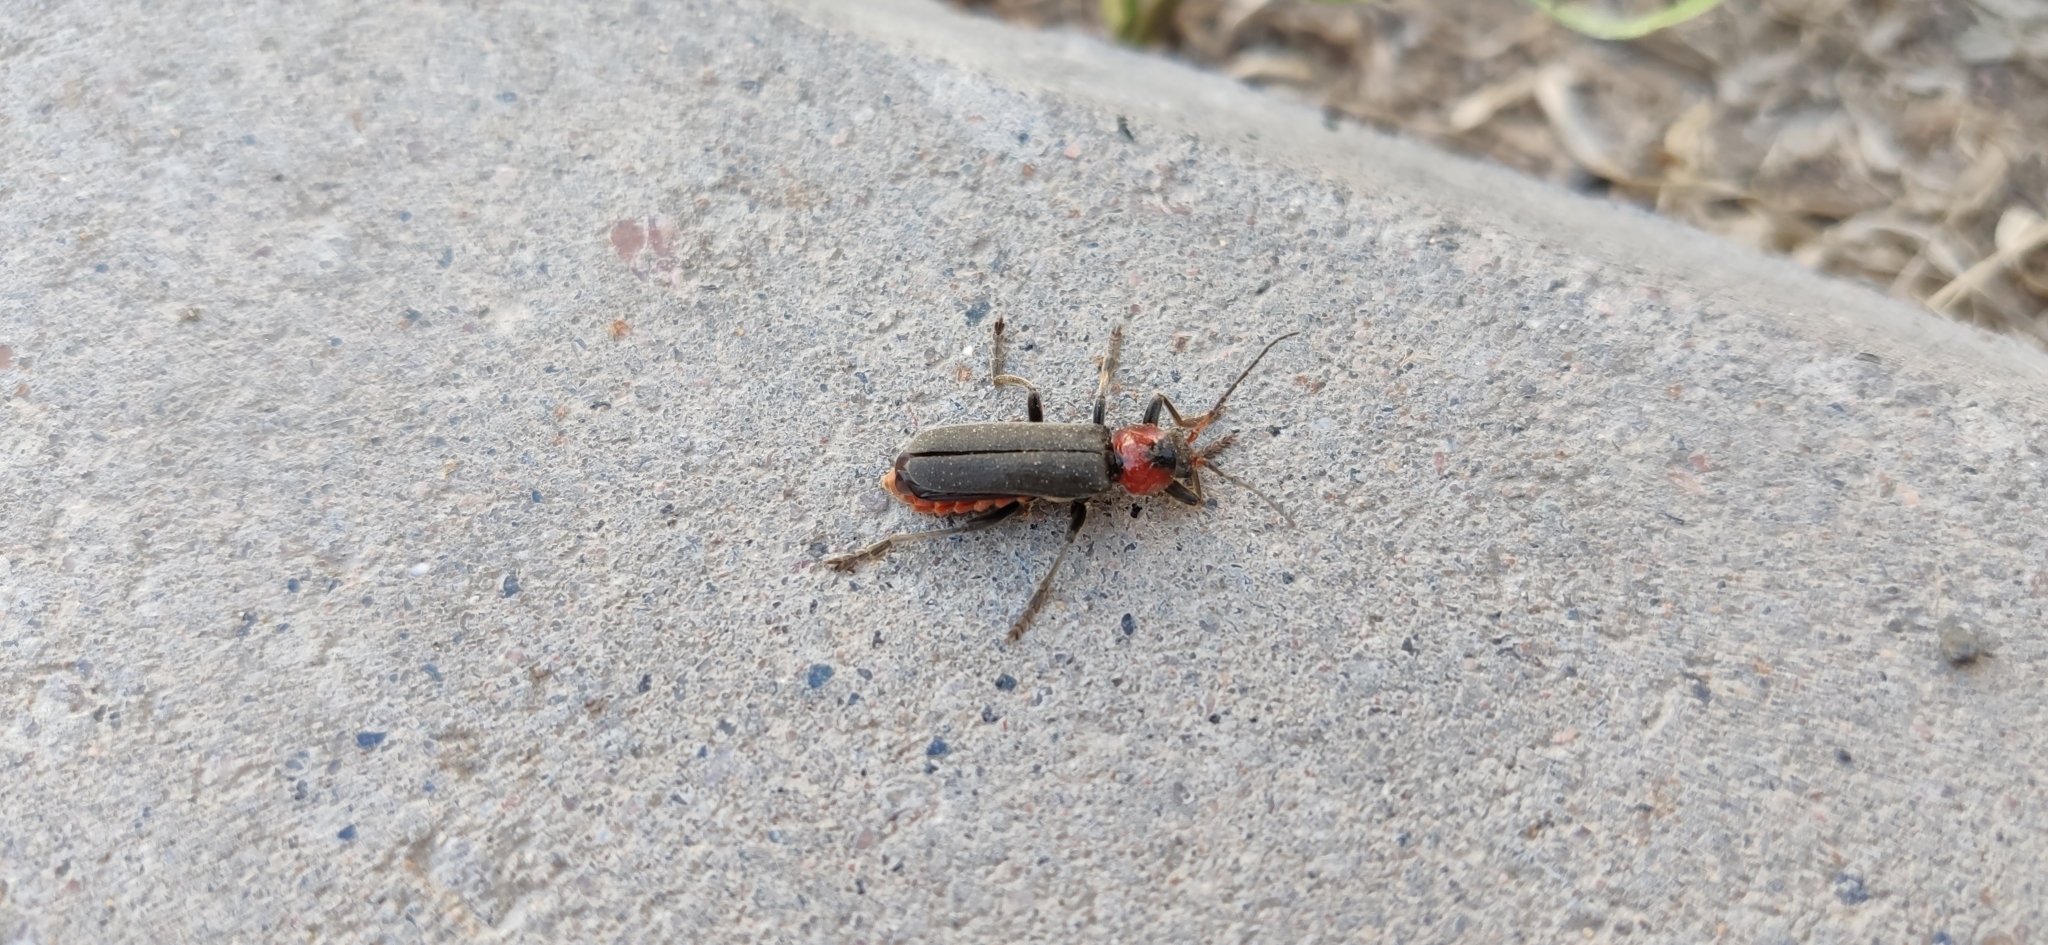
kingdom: Animalia
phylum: Arthropoda
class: Insecta
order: Coleoptera
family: Cantharidae
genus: Cantharis
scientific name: Cantharis fusca
